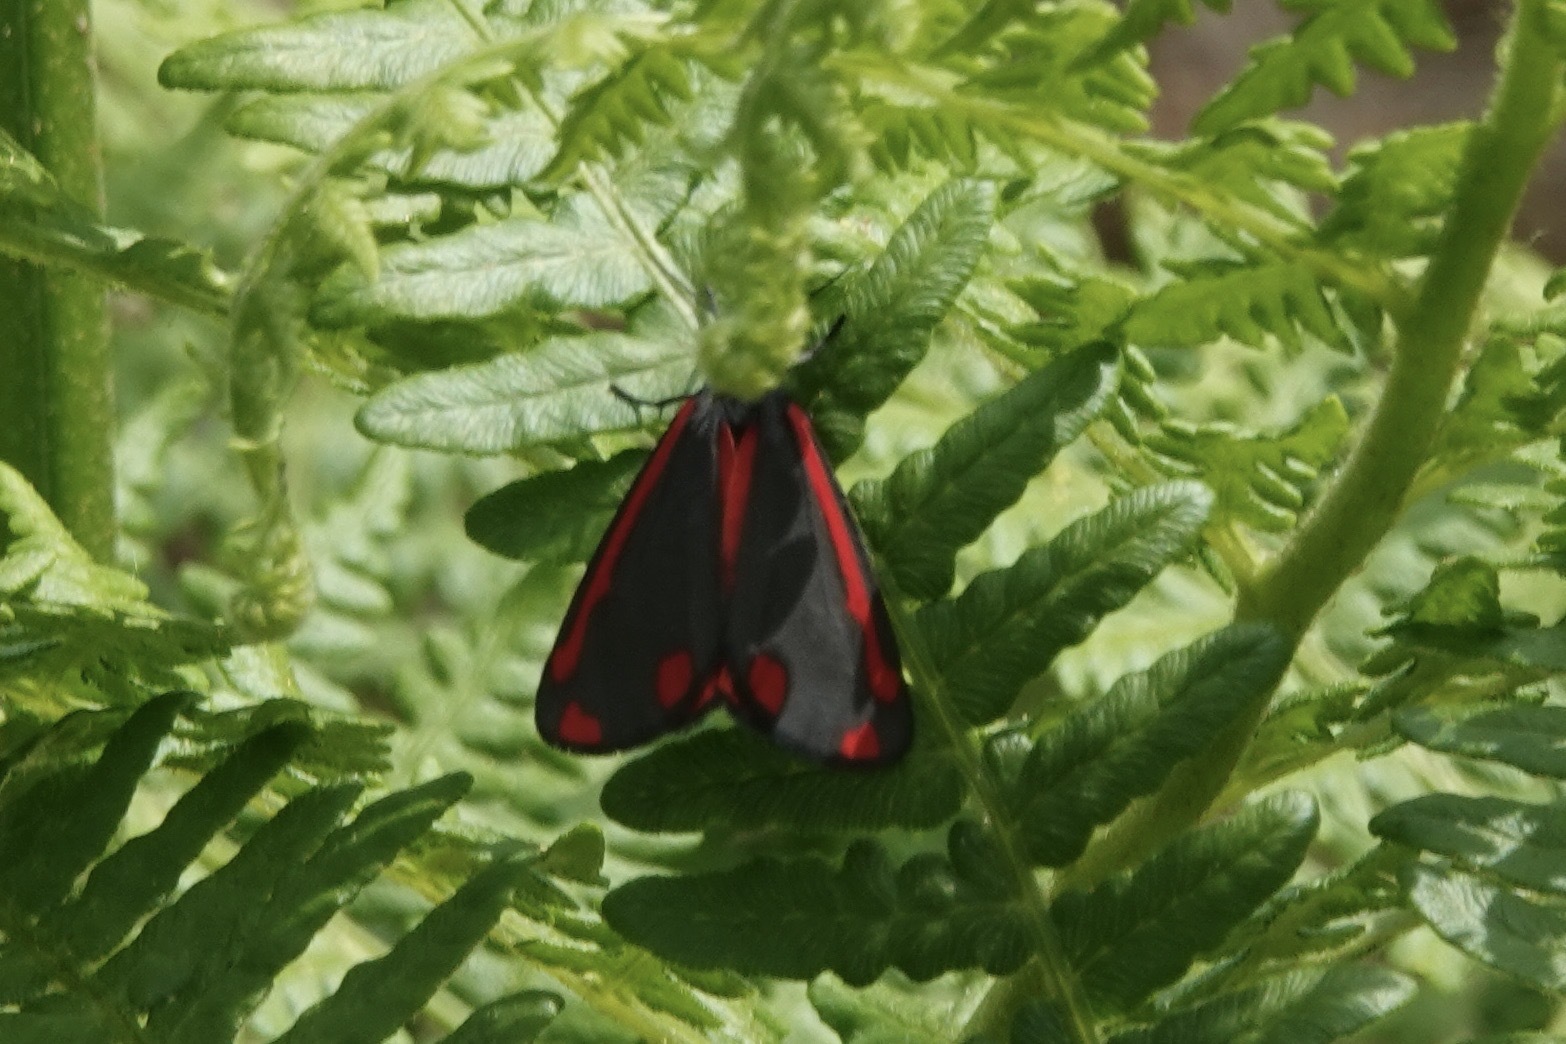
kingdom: Animalia
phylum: Arthropoda
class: Insecta
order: Lepidoptera
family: Erebidae
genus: Tyria
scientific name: Tyria jacobaeae
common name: Cinnabar
